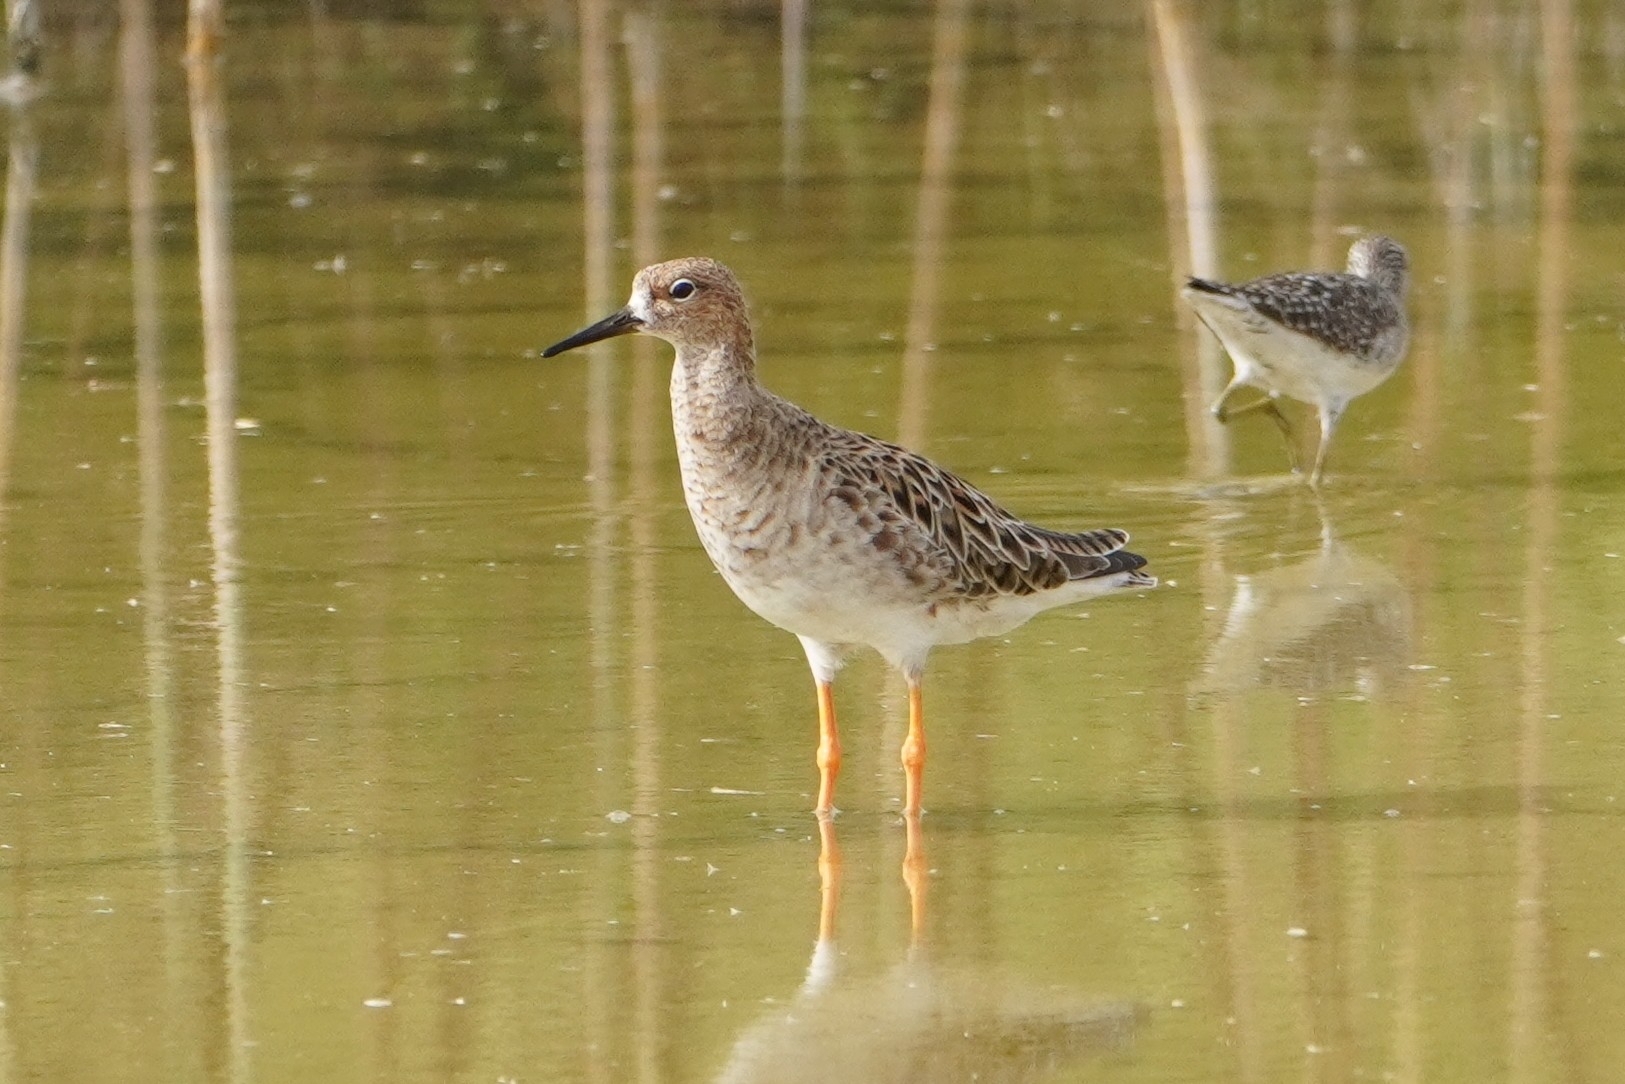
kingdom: Animalia
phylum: Chordata
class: Aves
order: Charadriiformes
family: Scolopacidae
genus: Calidris
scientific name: Calidris pugnax
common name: Ruff
